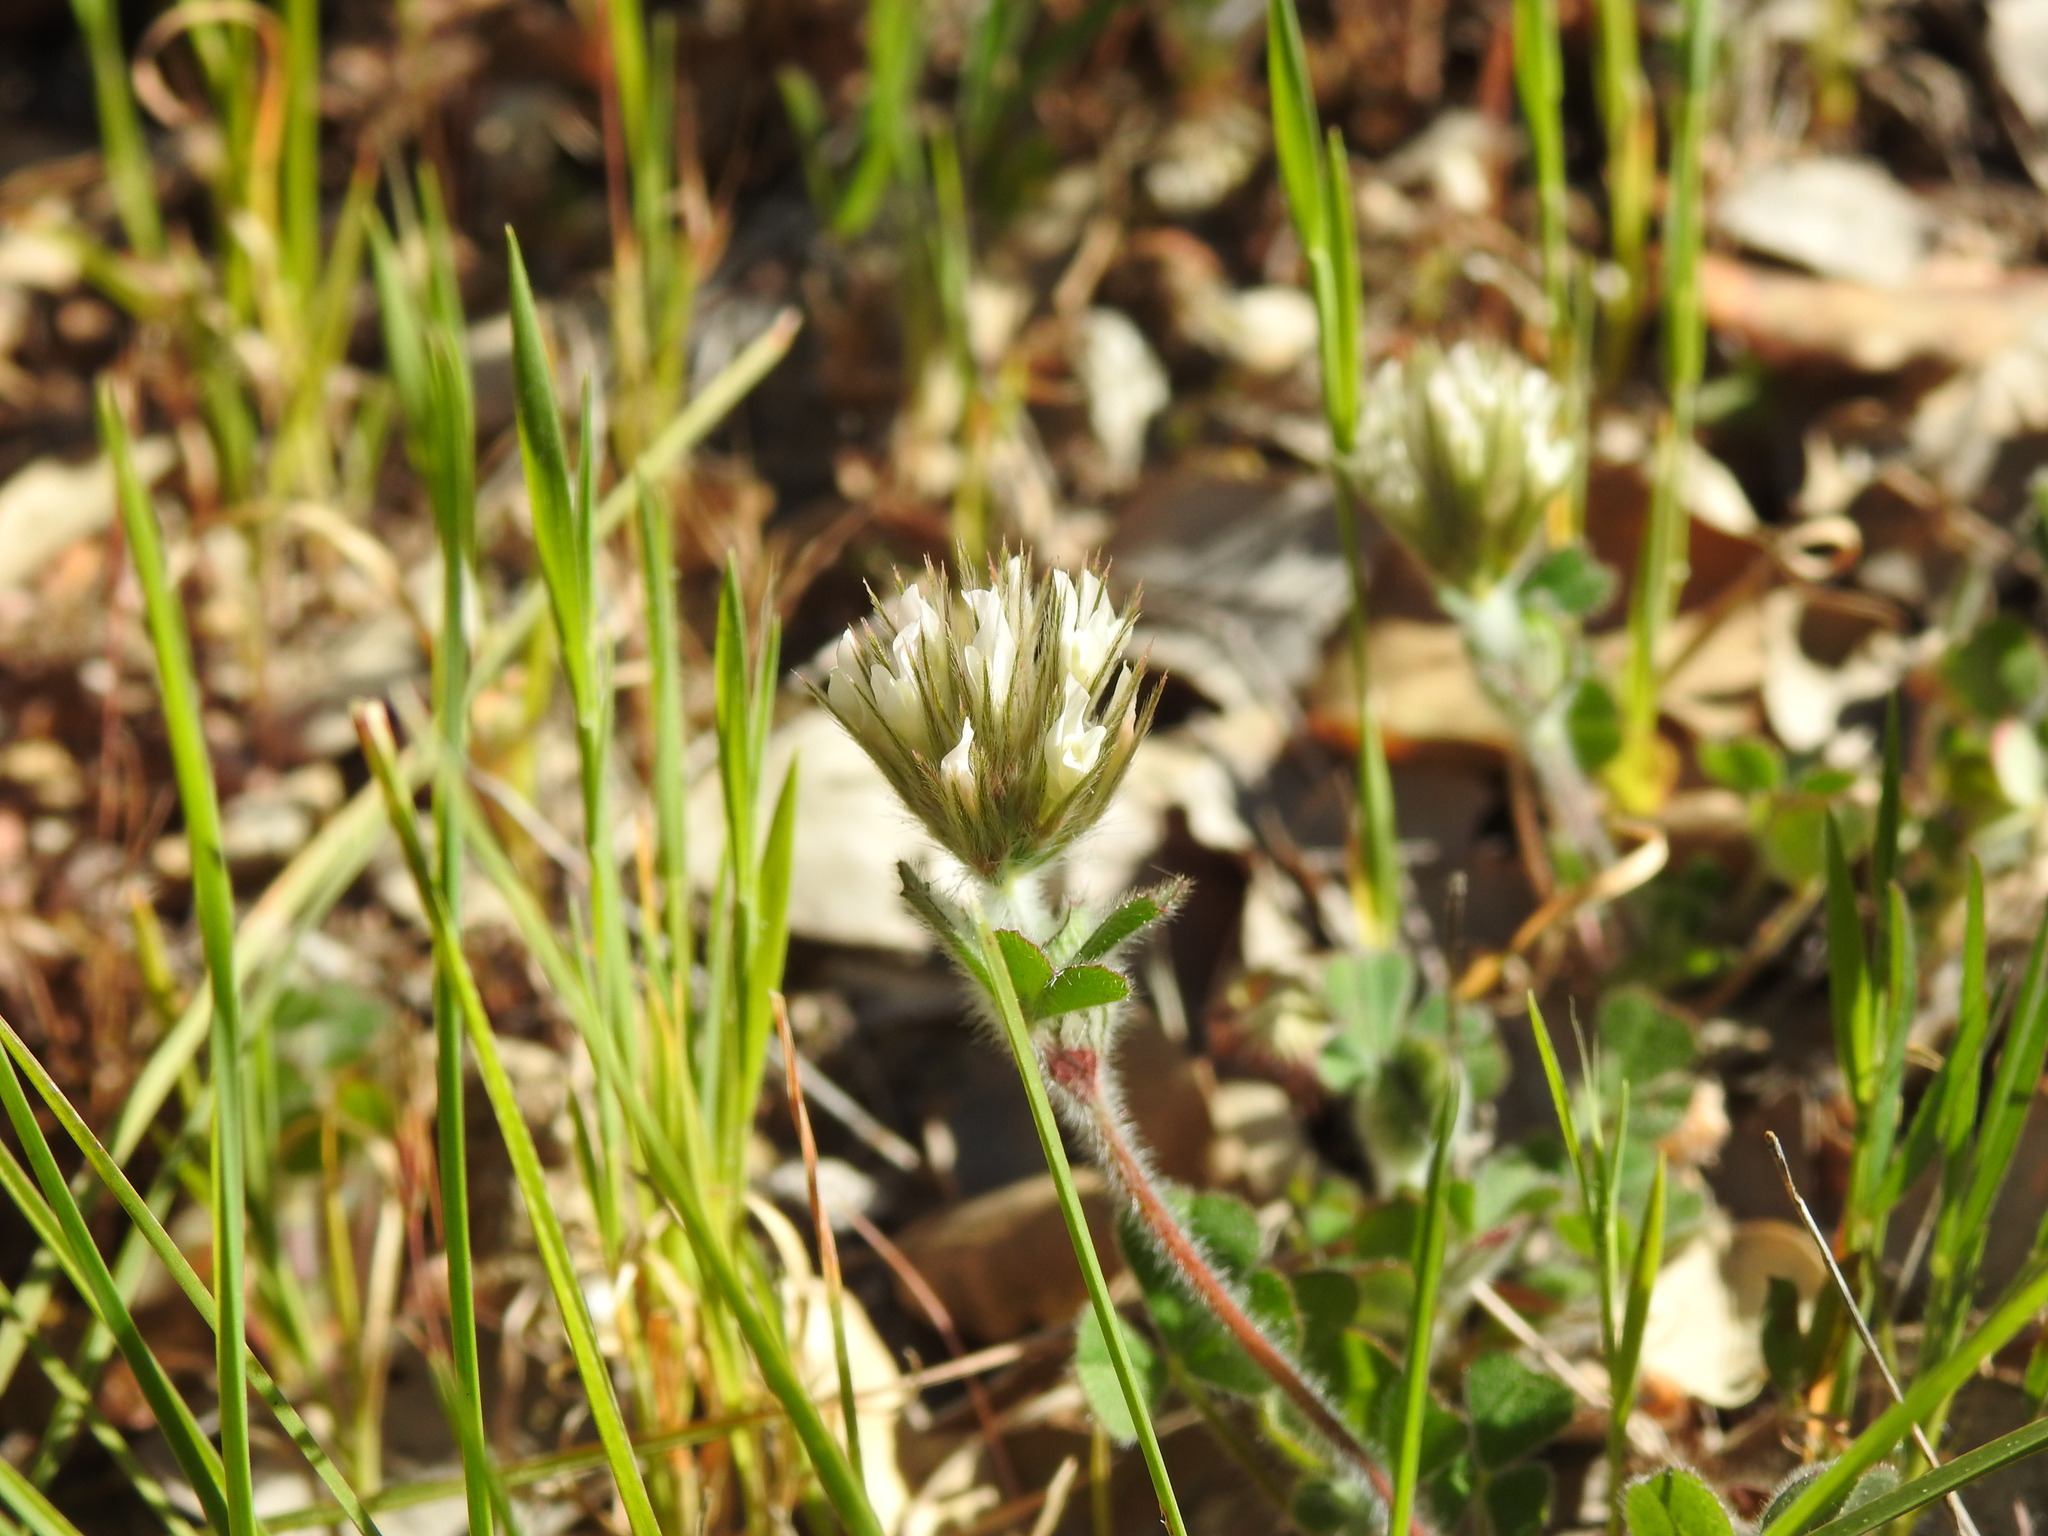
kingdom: Plantae
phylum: Tracheophyta
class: Magnoliopsida
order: Fabales
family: Fabaceae
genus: Trifolium
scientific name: Trifolium stellatum
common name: Starry clover
